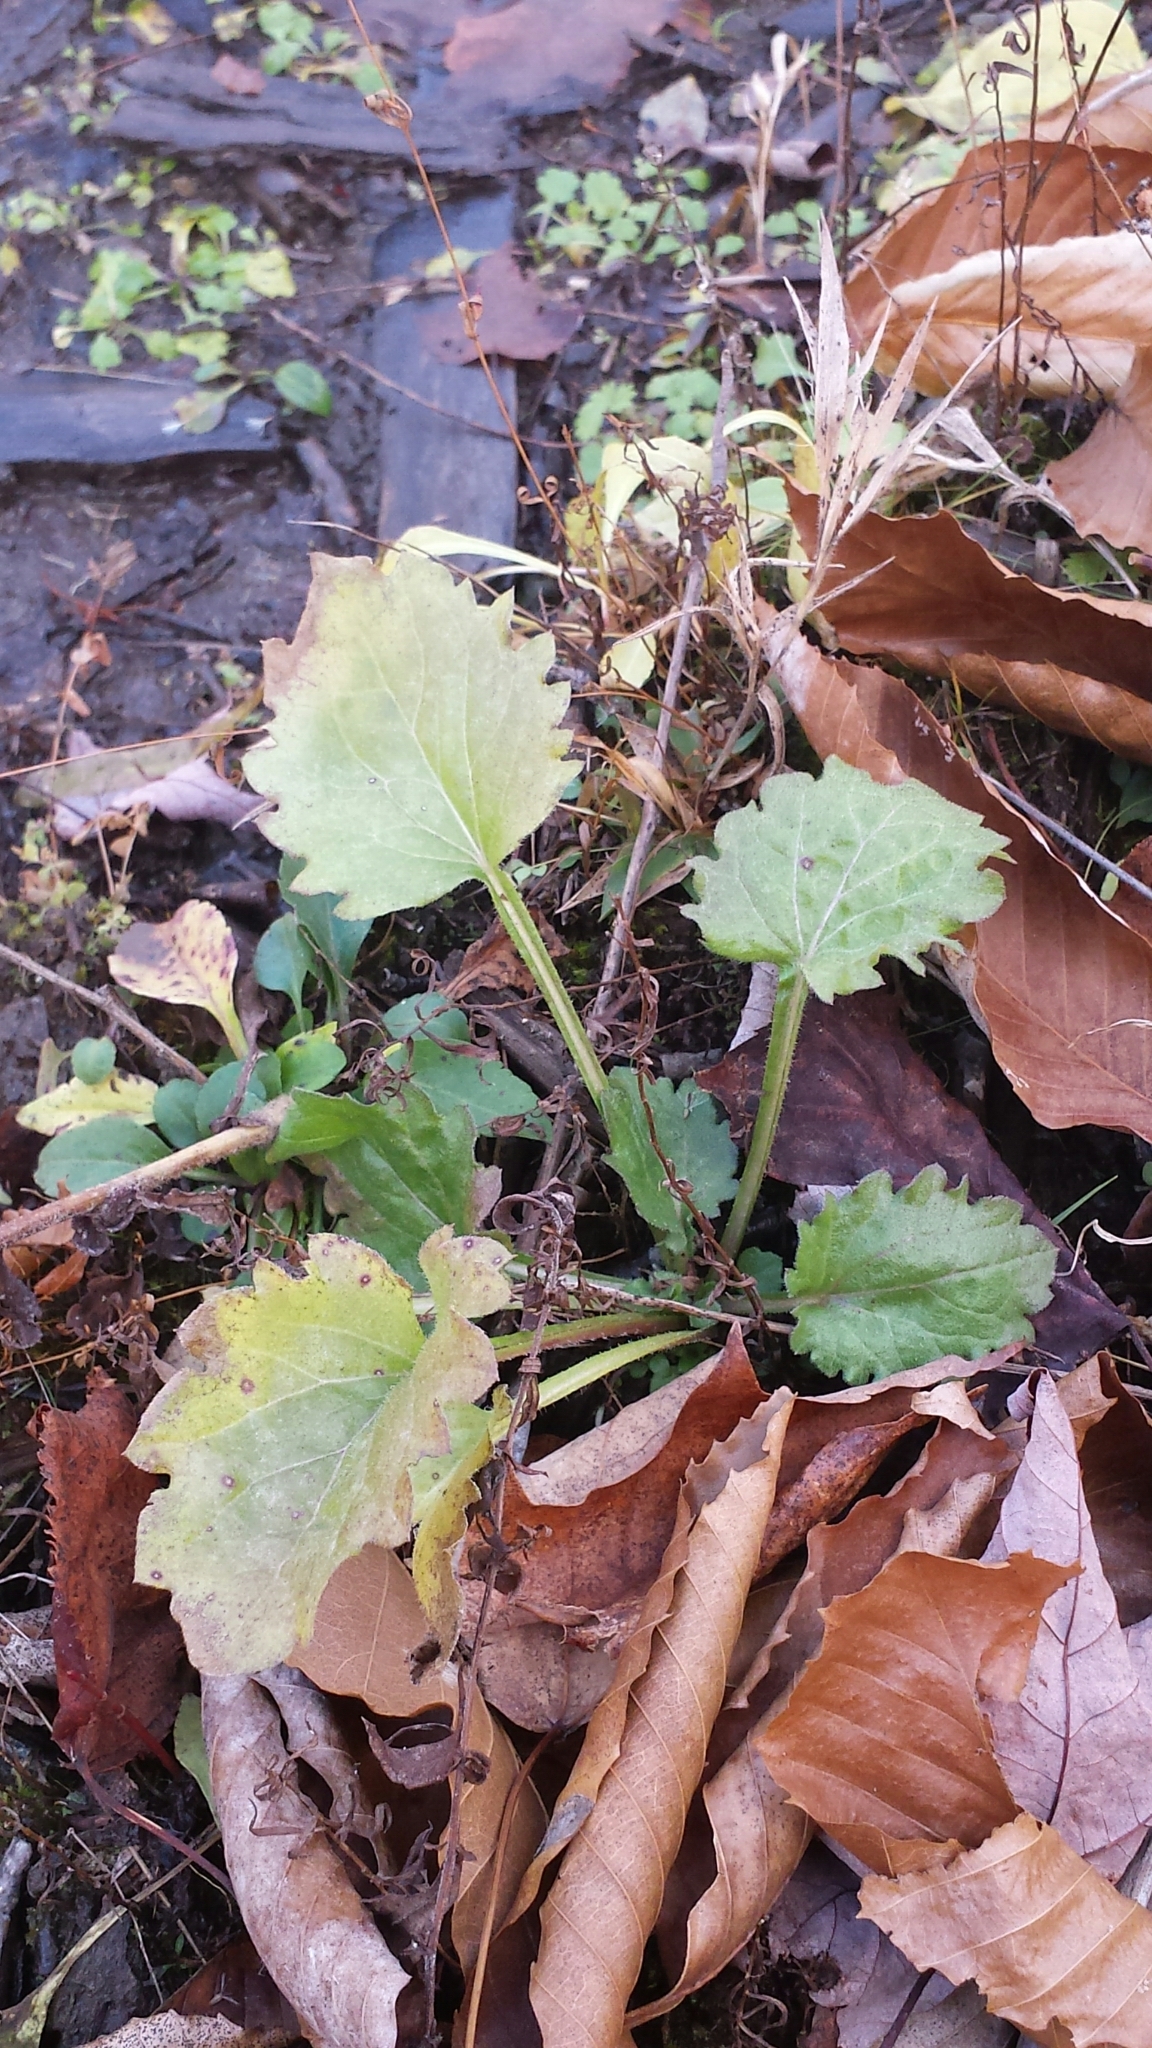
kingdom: Plantae
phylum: Tracheophyta
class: Magnoliopsida
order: Asterales
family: Asteraceae
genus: Erigeron
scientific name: Erigeron annuus
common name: Tall fleabane
